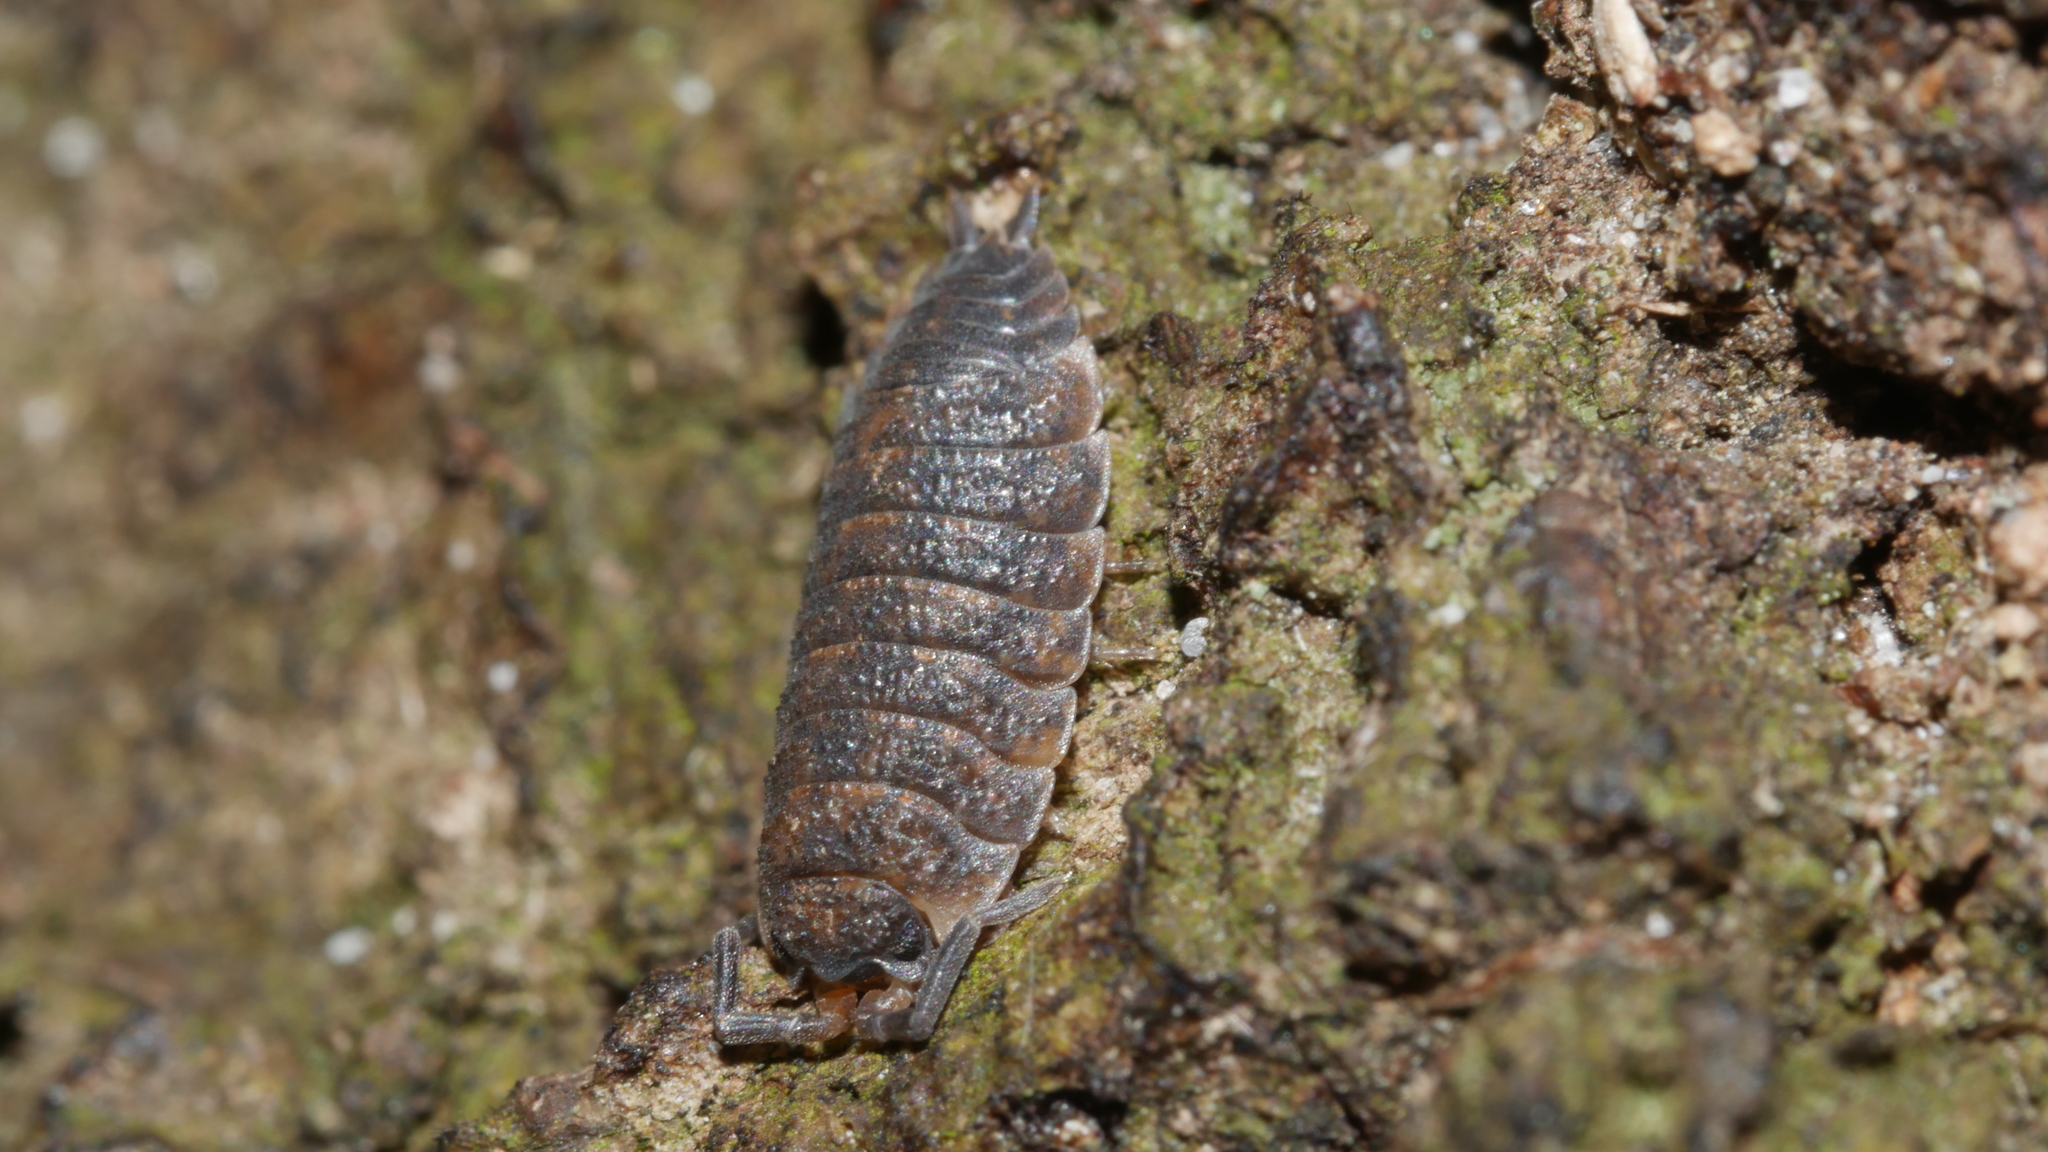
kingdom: Animalia
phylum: Arthropoda
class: Malacostraca
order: Isopoda
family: Porcellionidae
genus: Porcellio
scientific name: Porcellio scaber
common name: Common rough woodlouse
